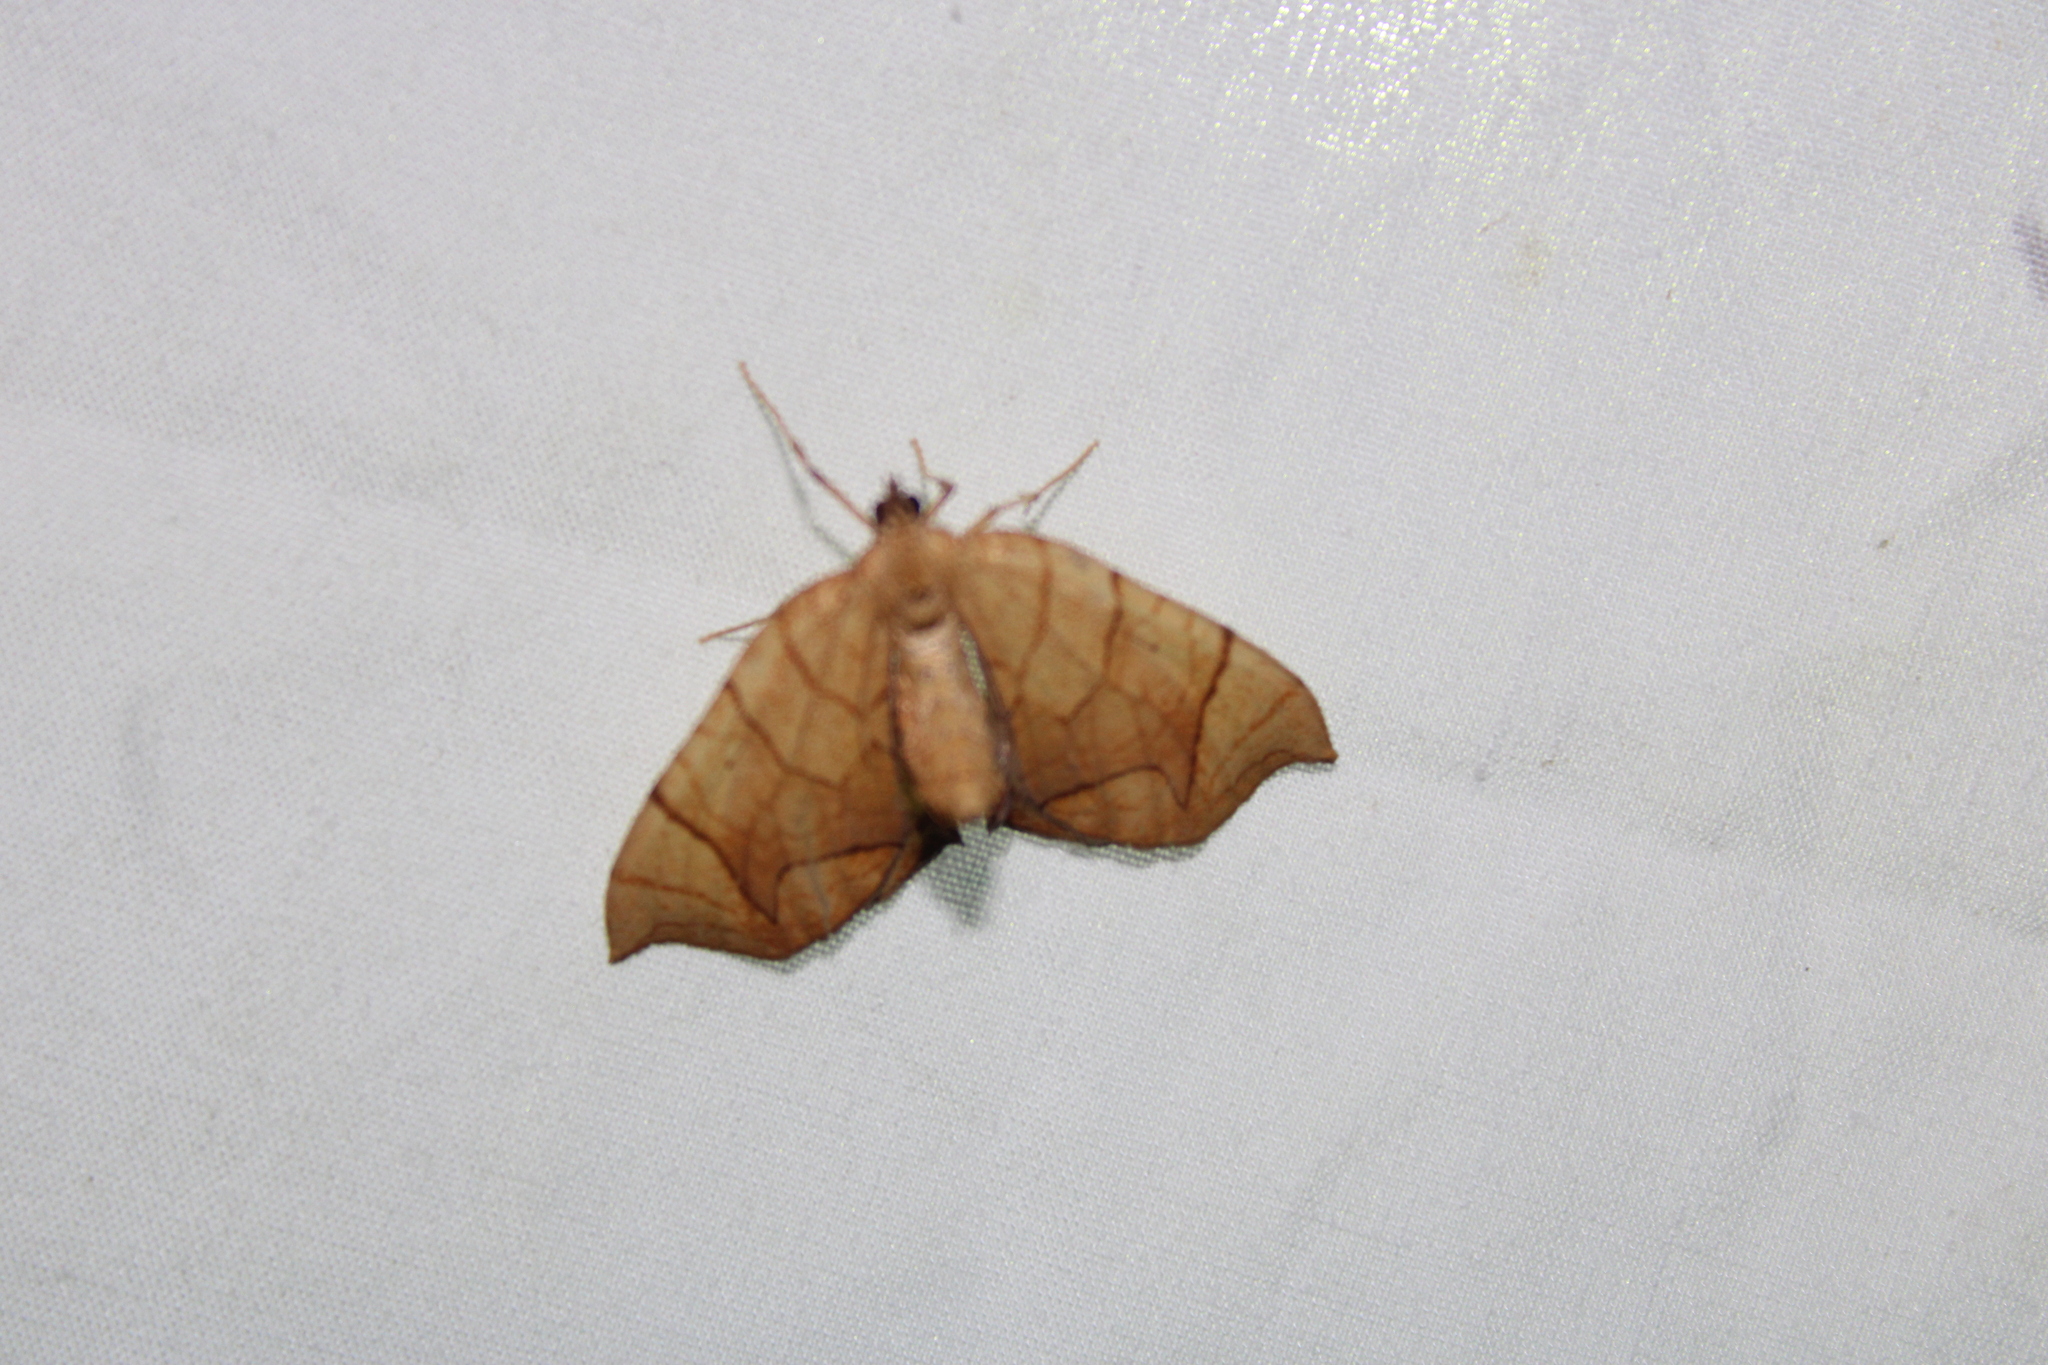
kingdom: Animalia
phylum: Arthropoda
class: Insecta
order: Lepidoptera
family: Geometridae
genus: Eulithis
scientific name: Eulithis
